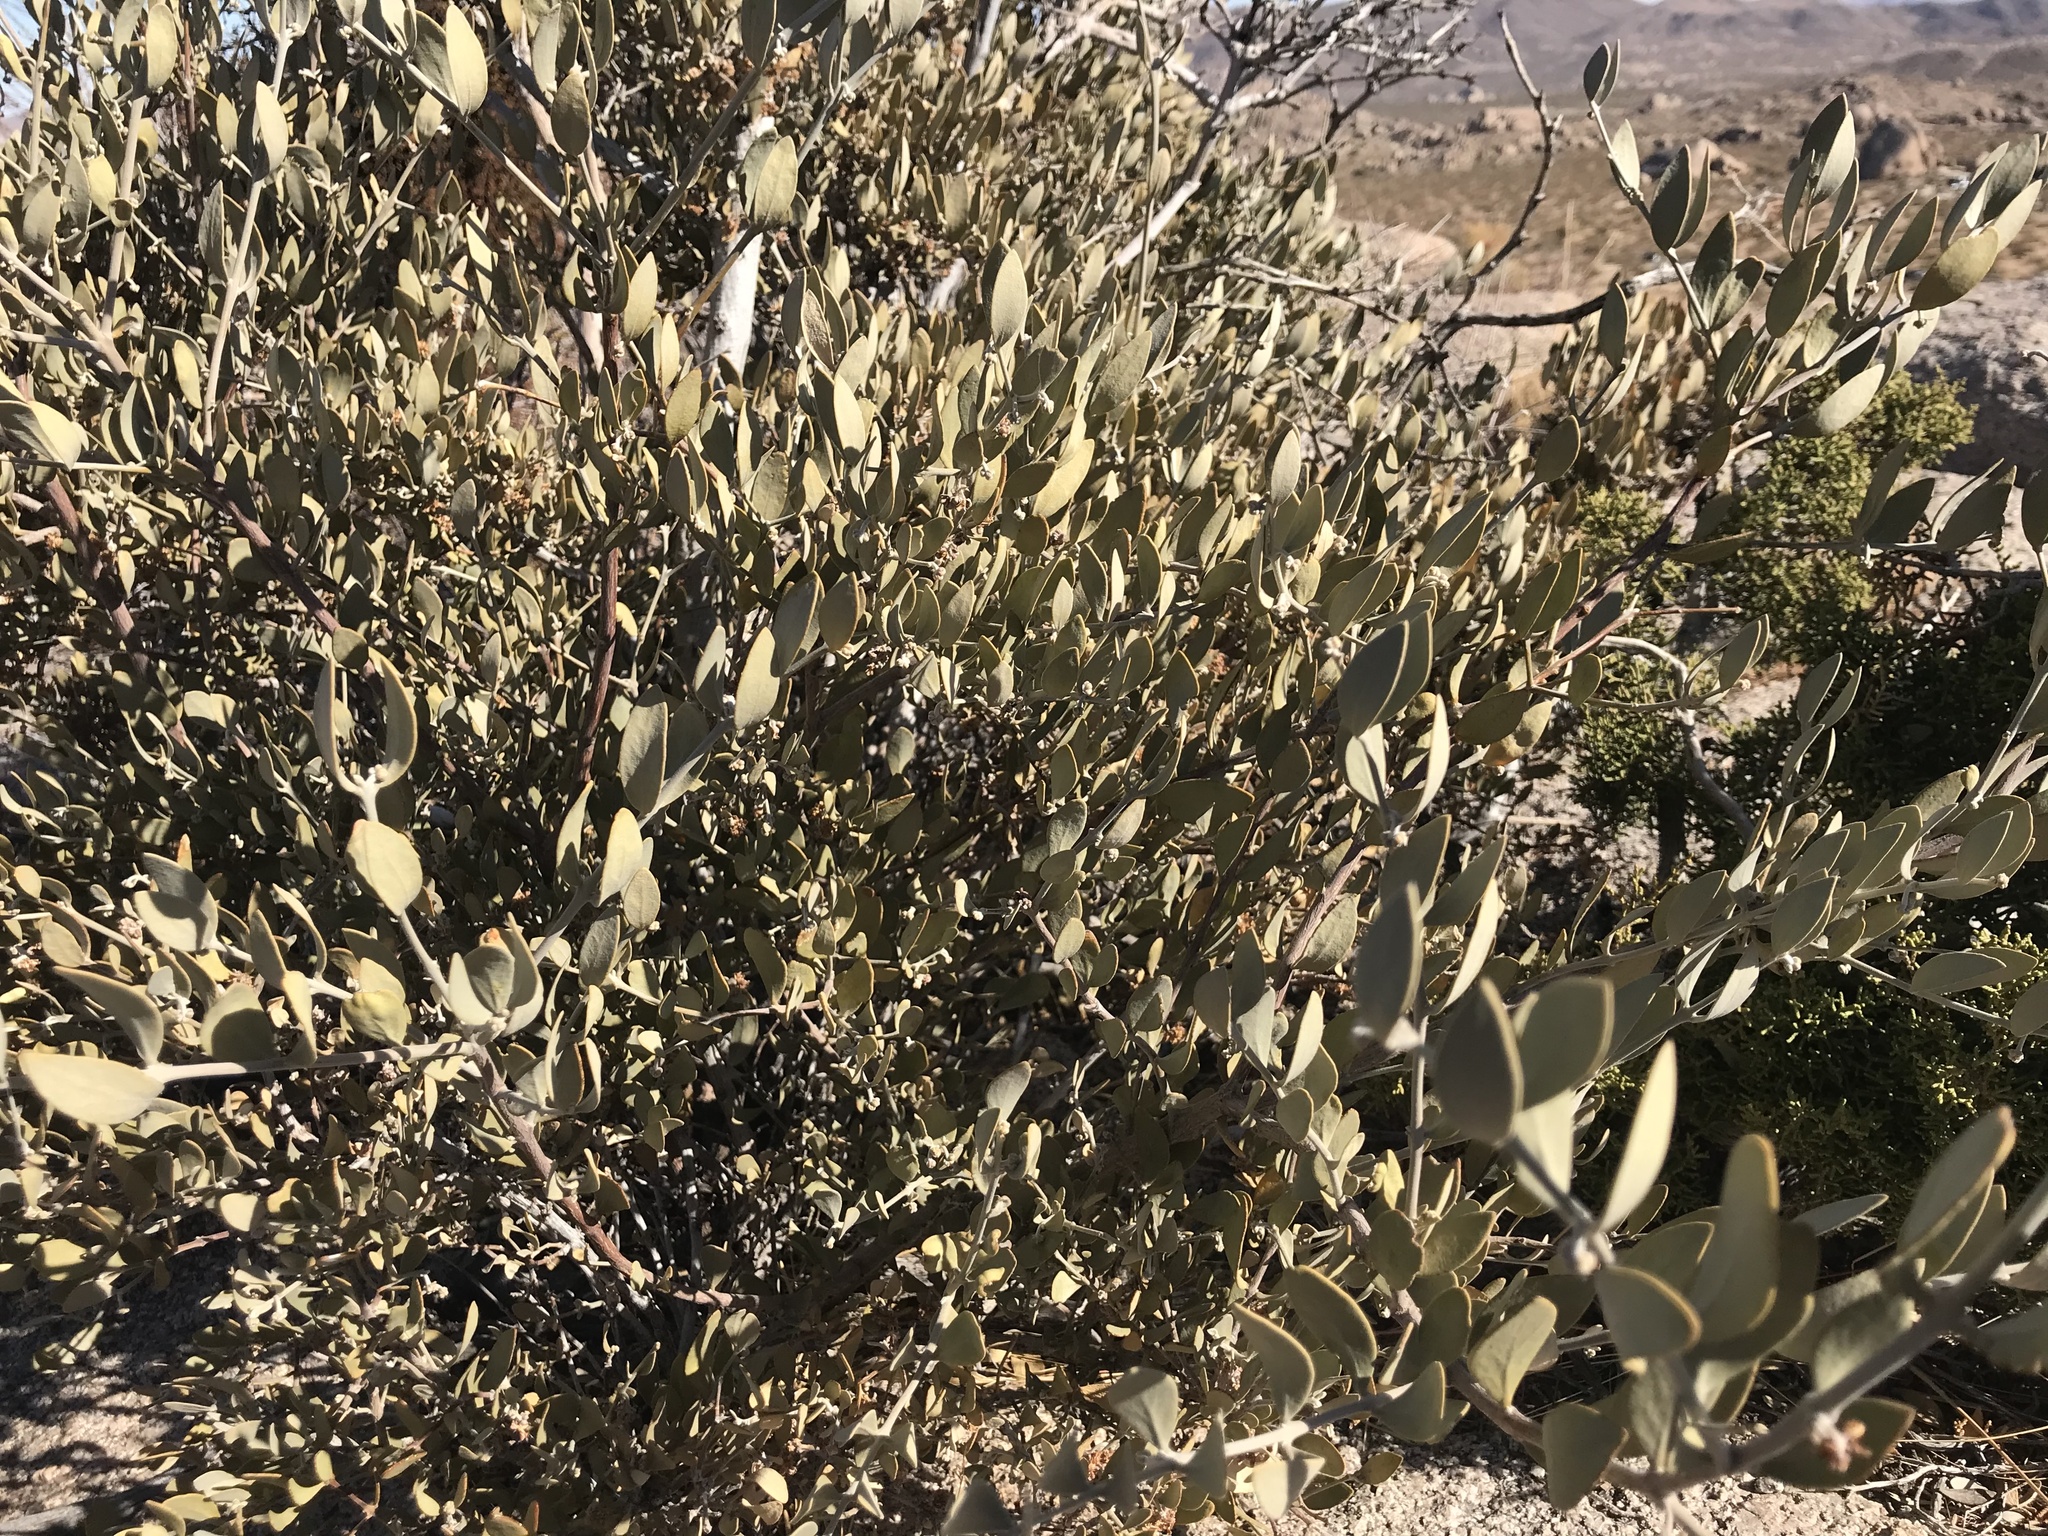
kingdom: Plantae
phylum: Tracheophyta
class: Magnoliopsida
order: Caryophyllales
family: Simmondsiaceae
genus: Simmondsia
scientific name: Simmondsia chinensis
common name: Jojoba
